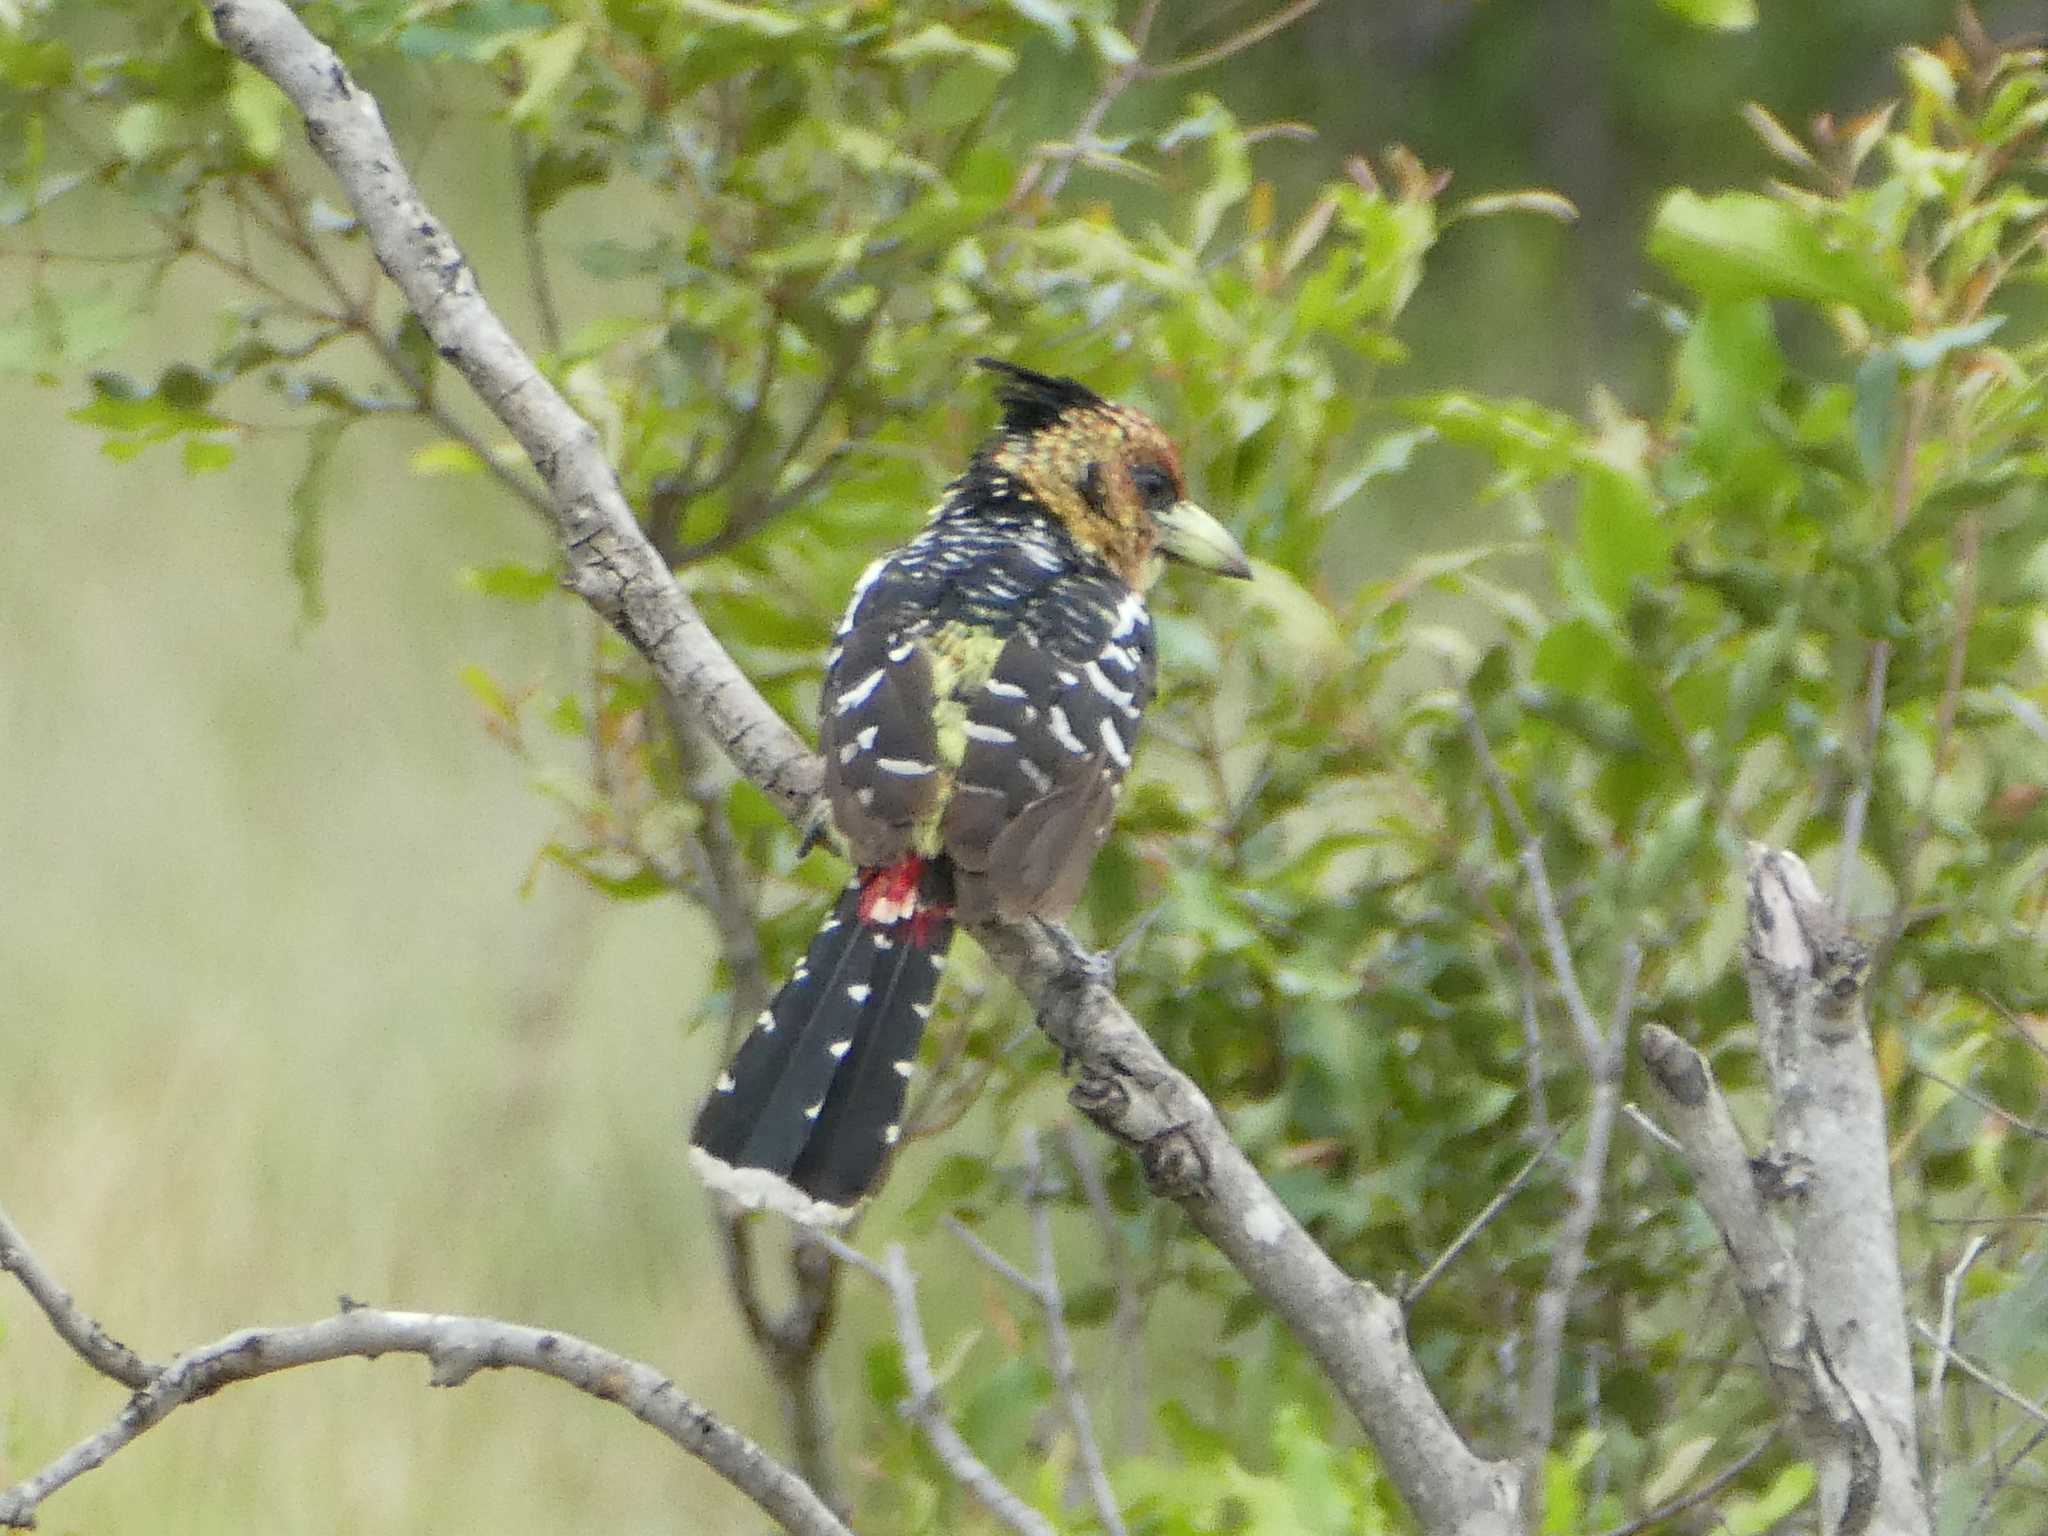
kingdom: Animalia
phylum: Chordata
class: Aves
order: Piciformes
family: Lybiidae
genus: Trachyphonus
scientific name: Trachyphonus vaillantii
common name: Crested barbet
